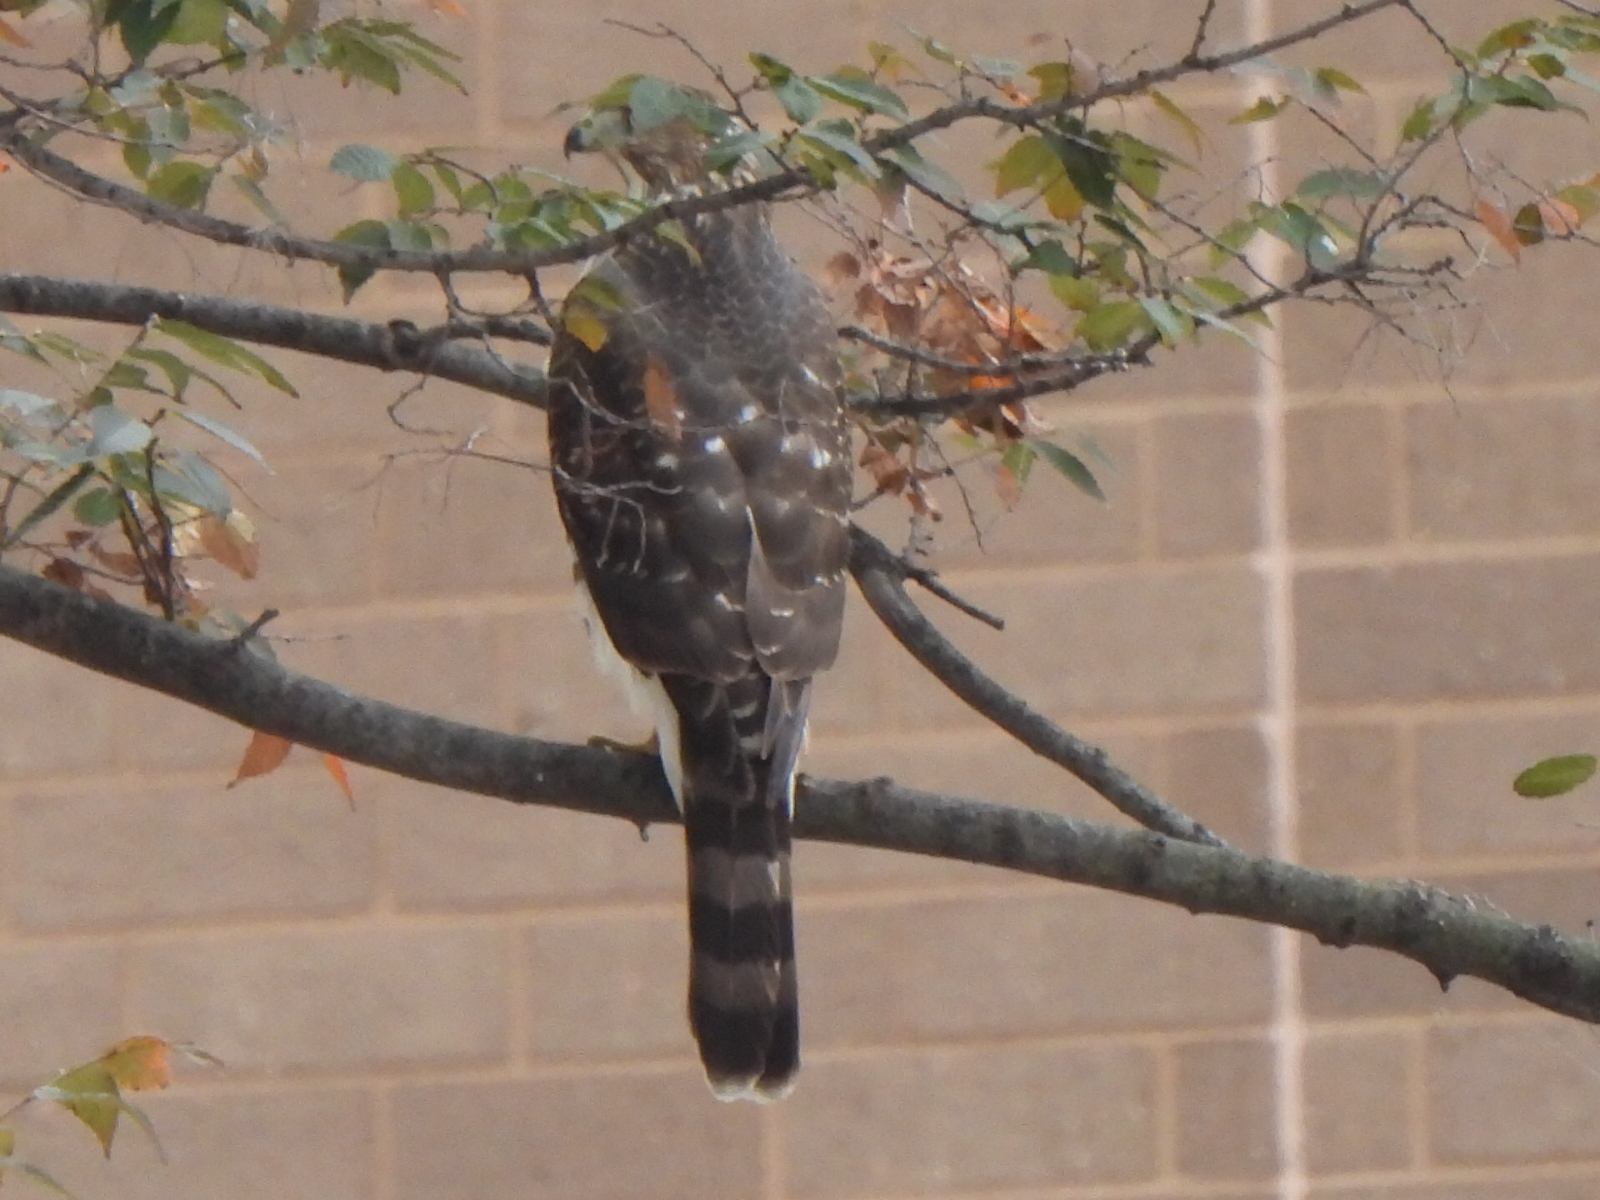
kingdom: Animalia
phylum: Chordata
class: Aves
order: Accipitriformes
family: Accipitridae
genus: Accipiter
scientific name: Accipiter cooperii
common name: Cooper's hawk
